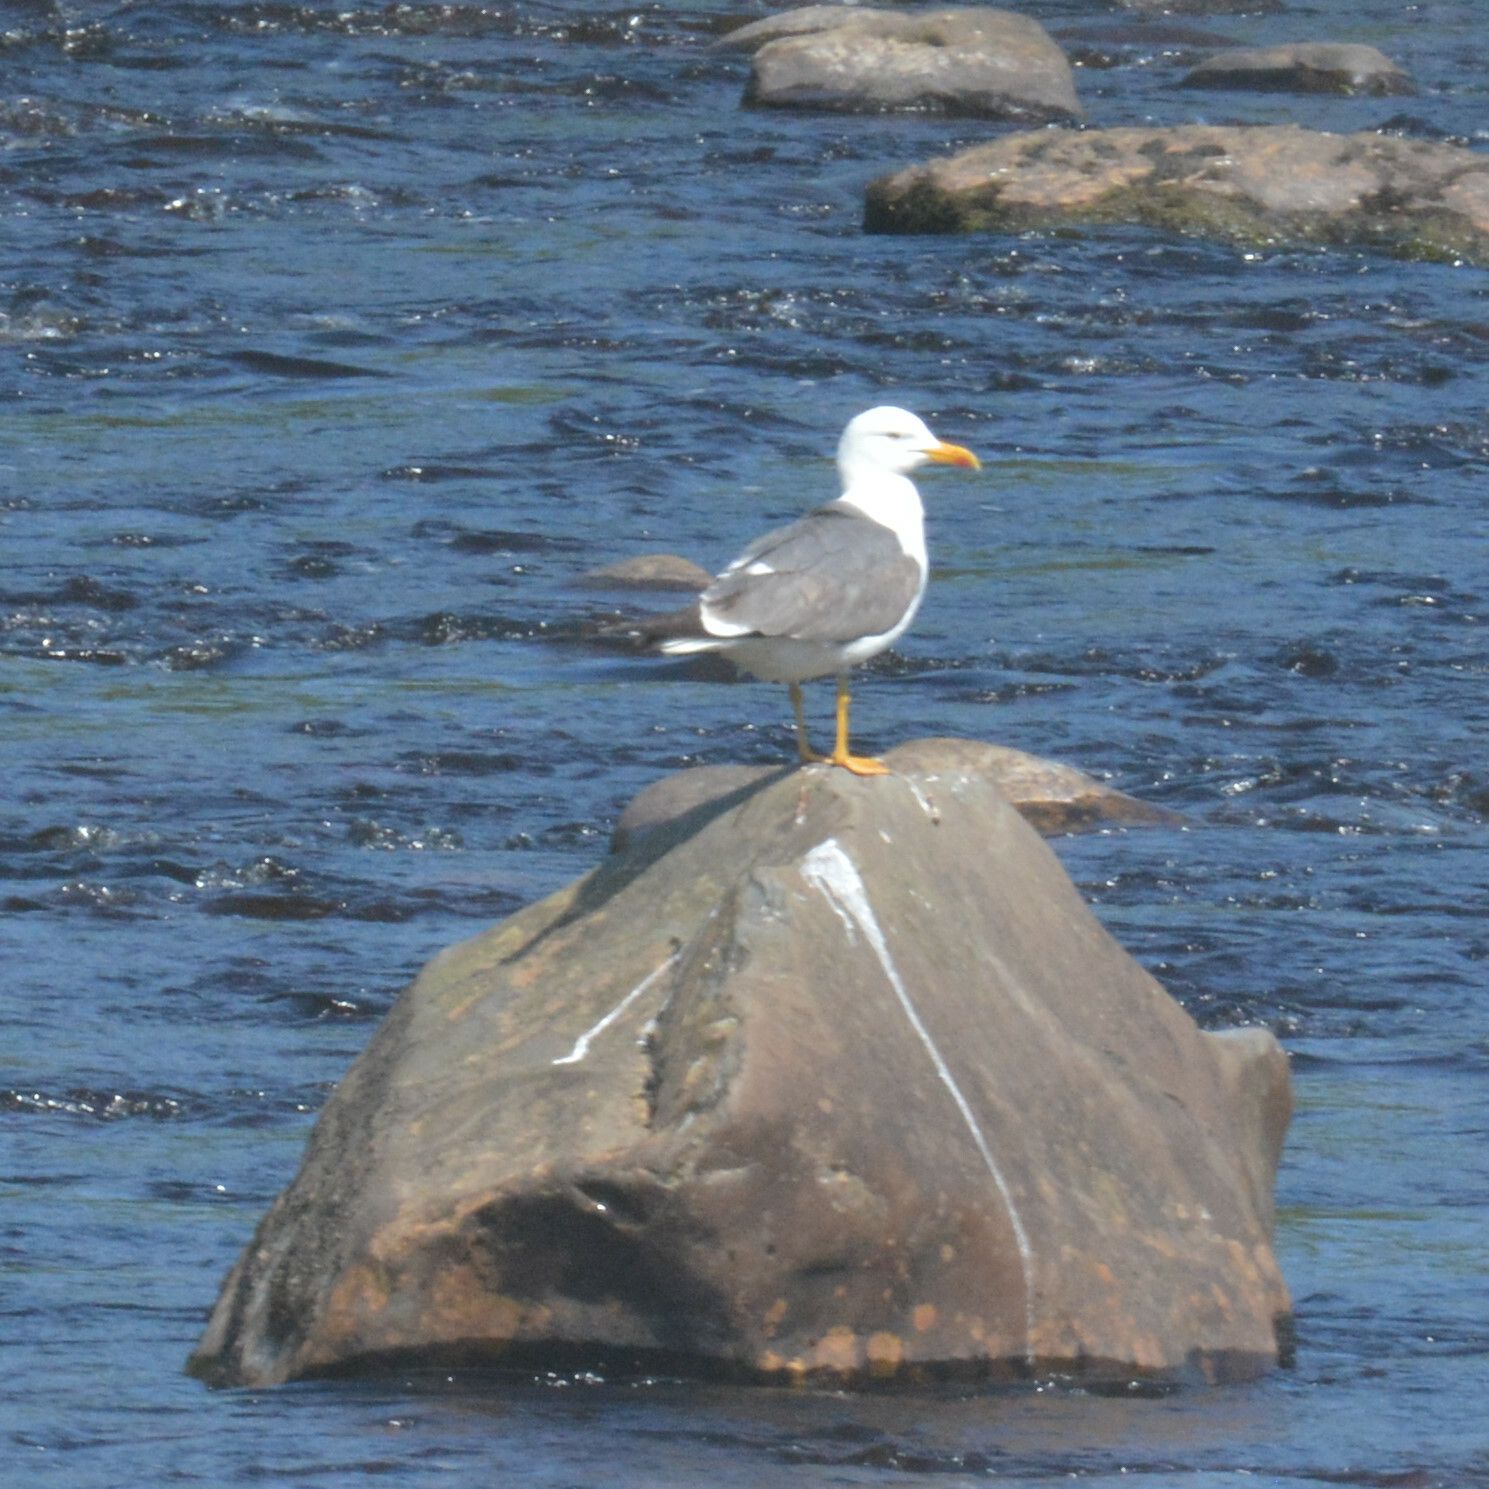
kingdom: Animalia
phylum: Chordata
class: Aves
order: Charadriiformes
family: Laridae
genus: Larus
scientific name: Larus fuscus
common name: Lesser black-backed gull
